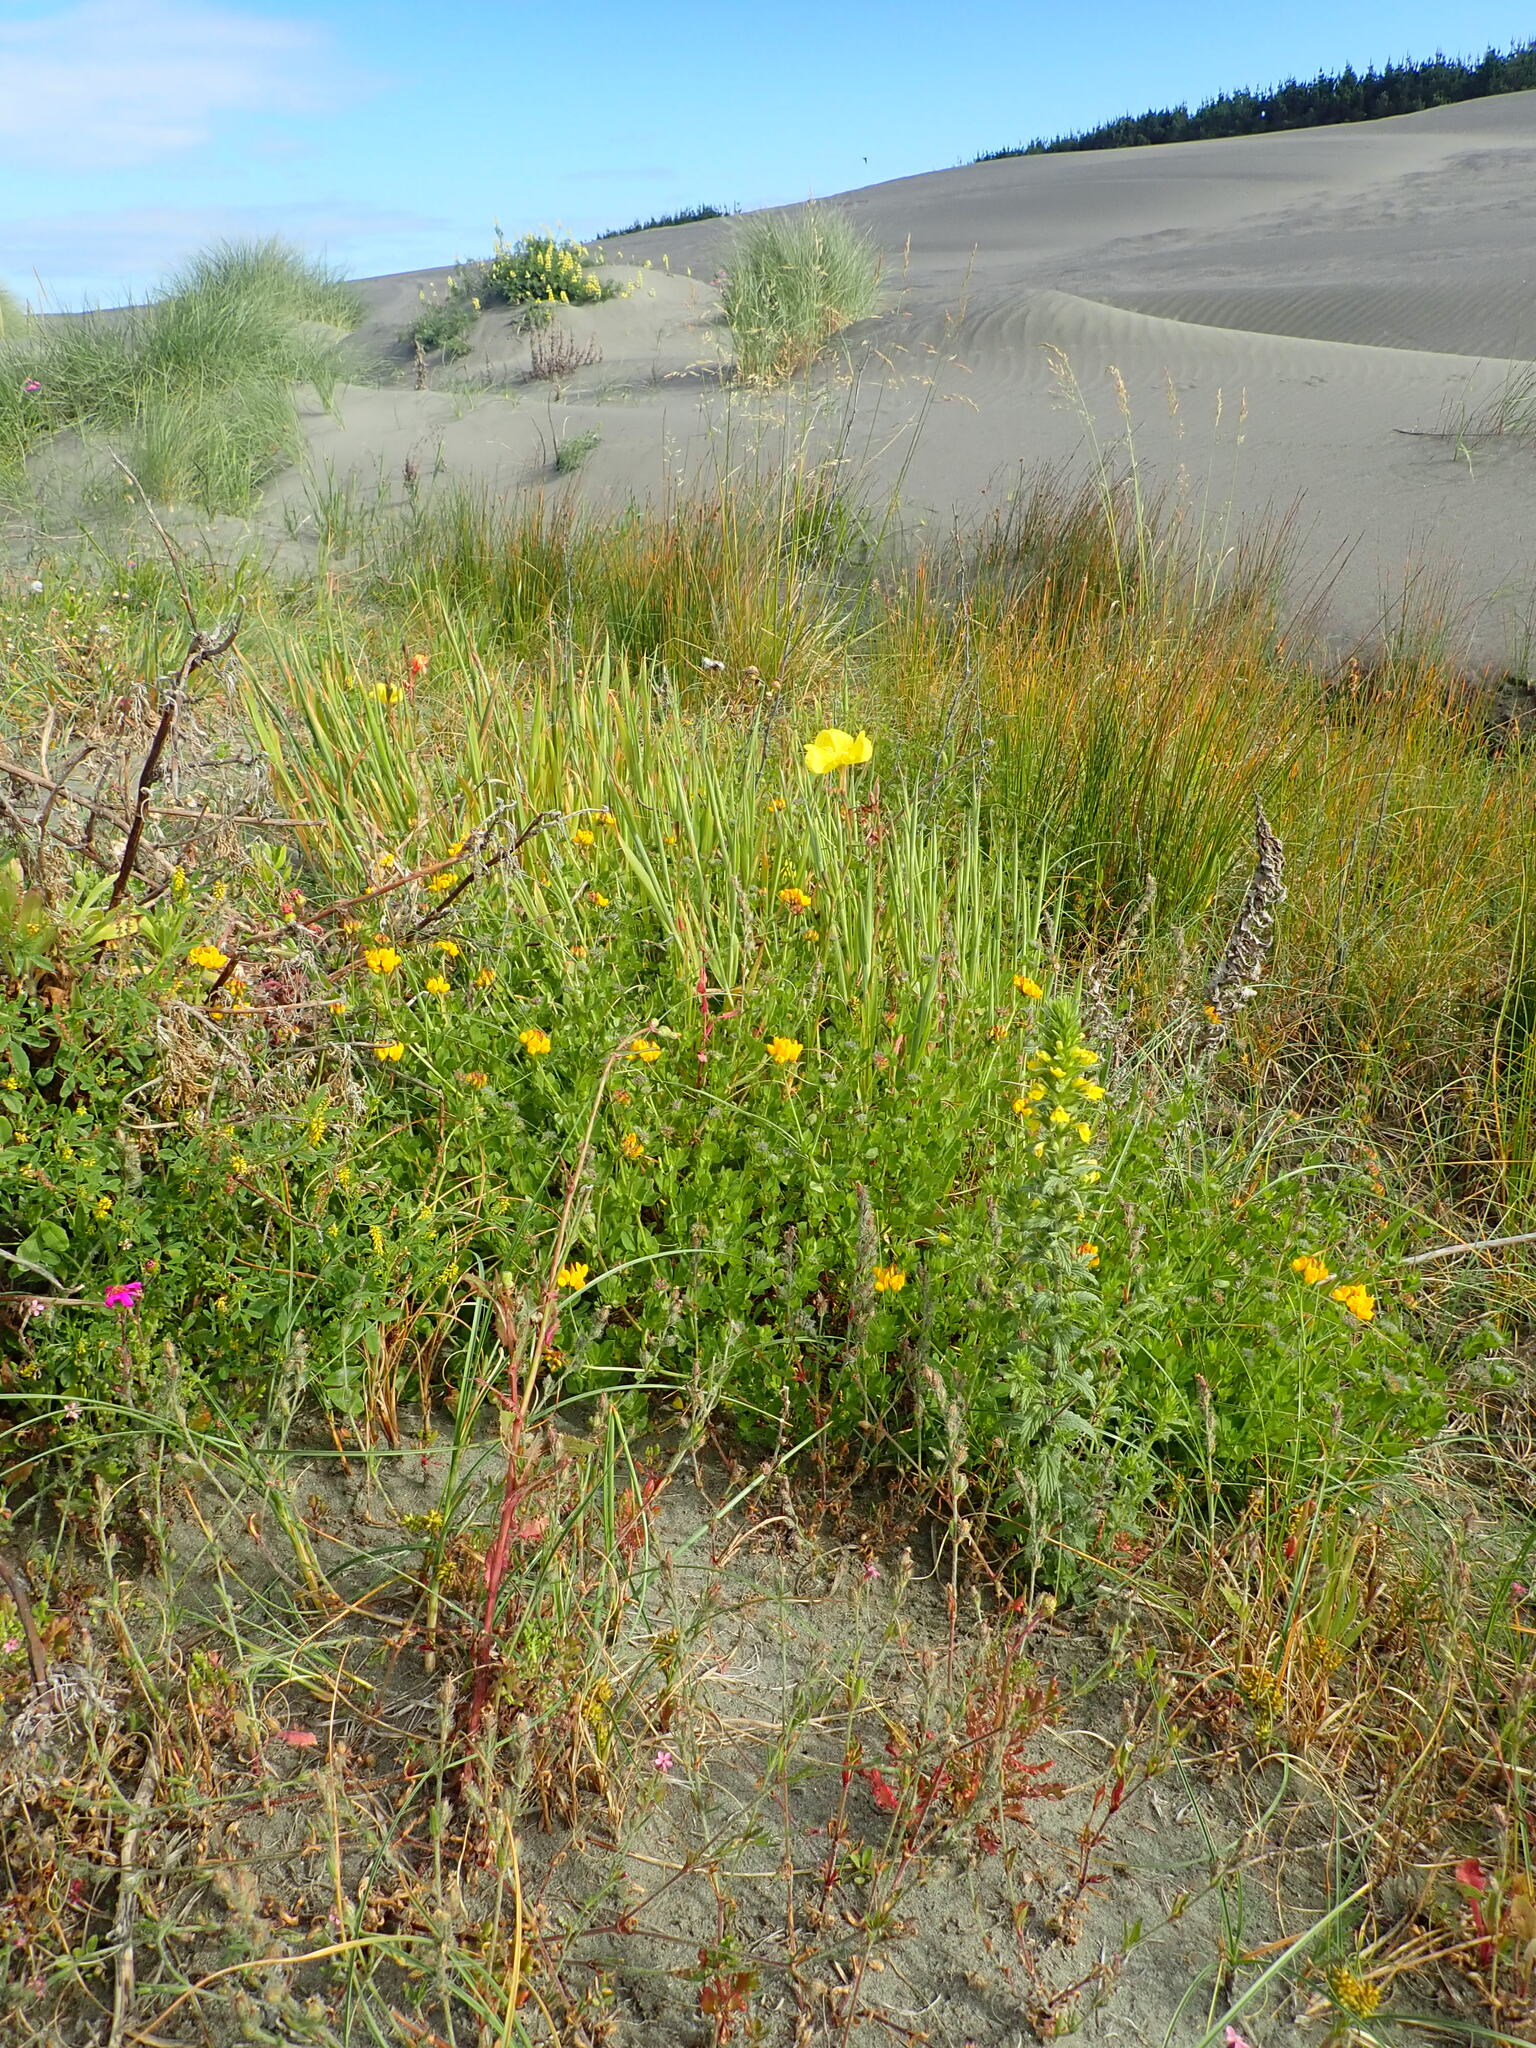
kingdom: Plantae
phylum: Tracheophyta
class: Magnoliopsida
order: Lamiales
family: Orobanchaceae
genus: Bellardia
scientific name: Bellardia viscosa
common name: Sticky parentucellia
